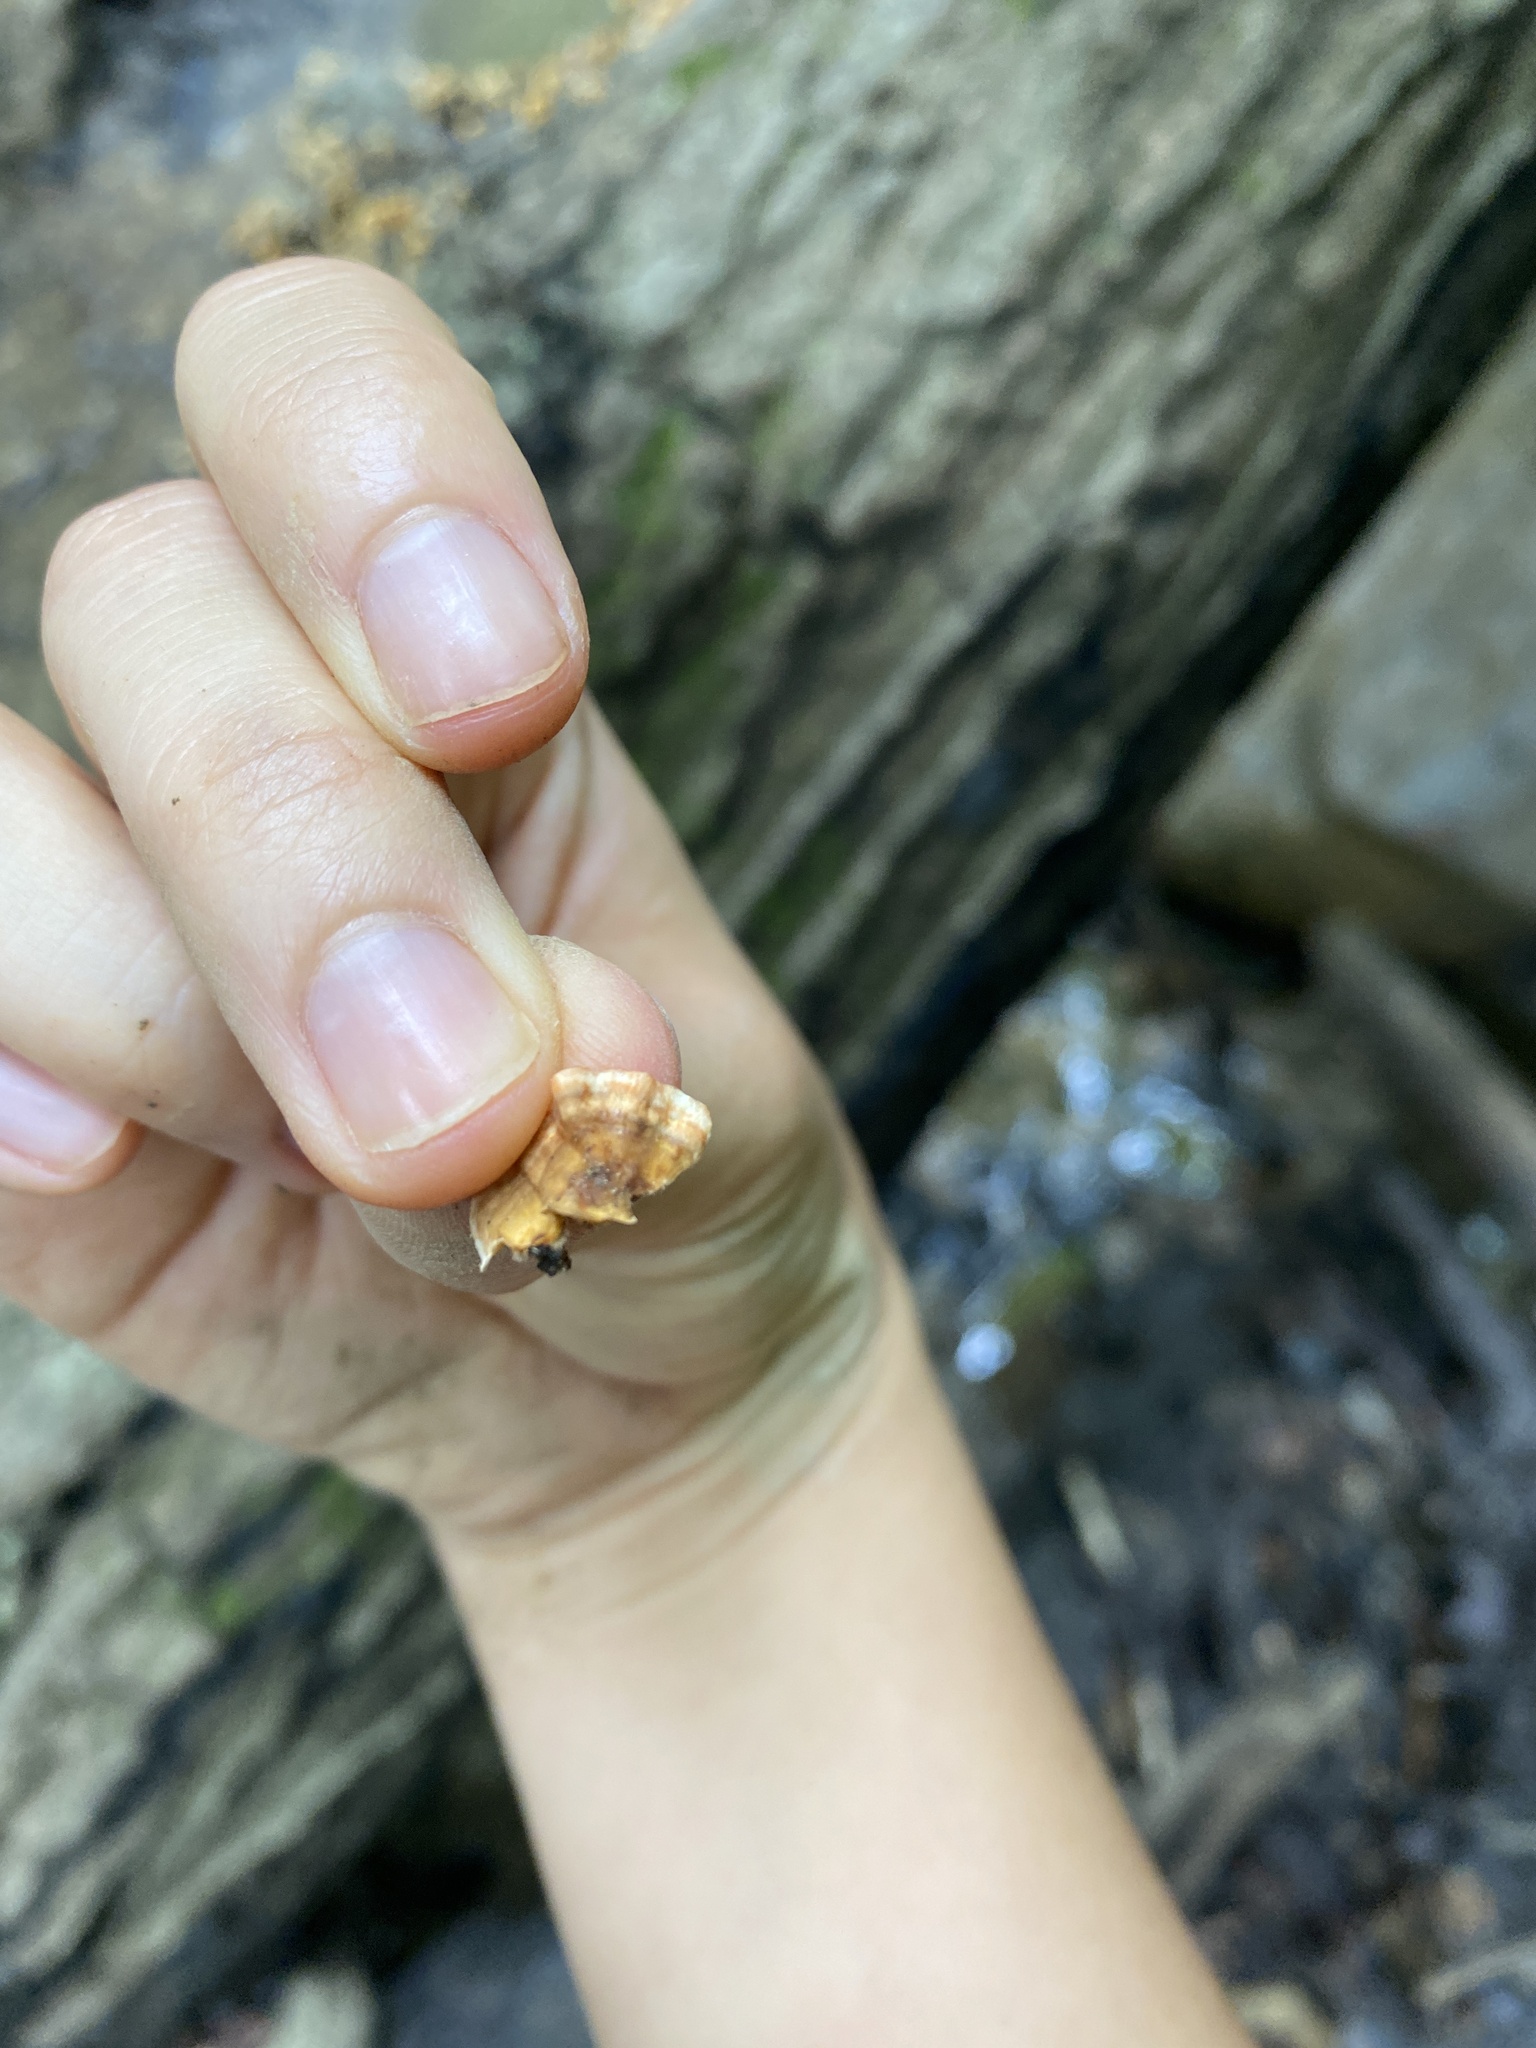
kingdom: Fungi
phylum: Basidiomycota
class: Agaricomycetes
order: Russulales
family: Stereaceae
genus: Stereum
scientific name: Stereum complicatum
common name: Crowded parchment
